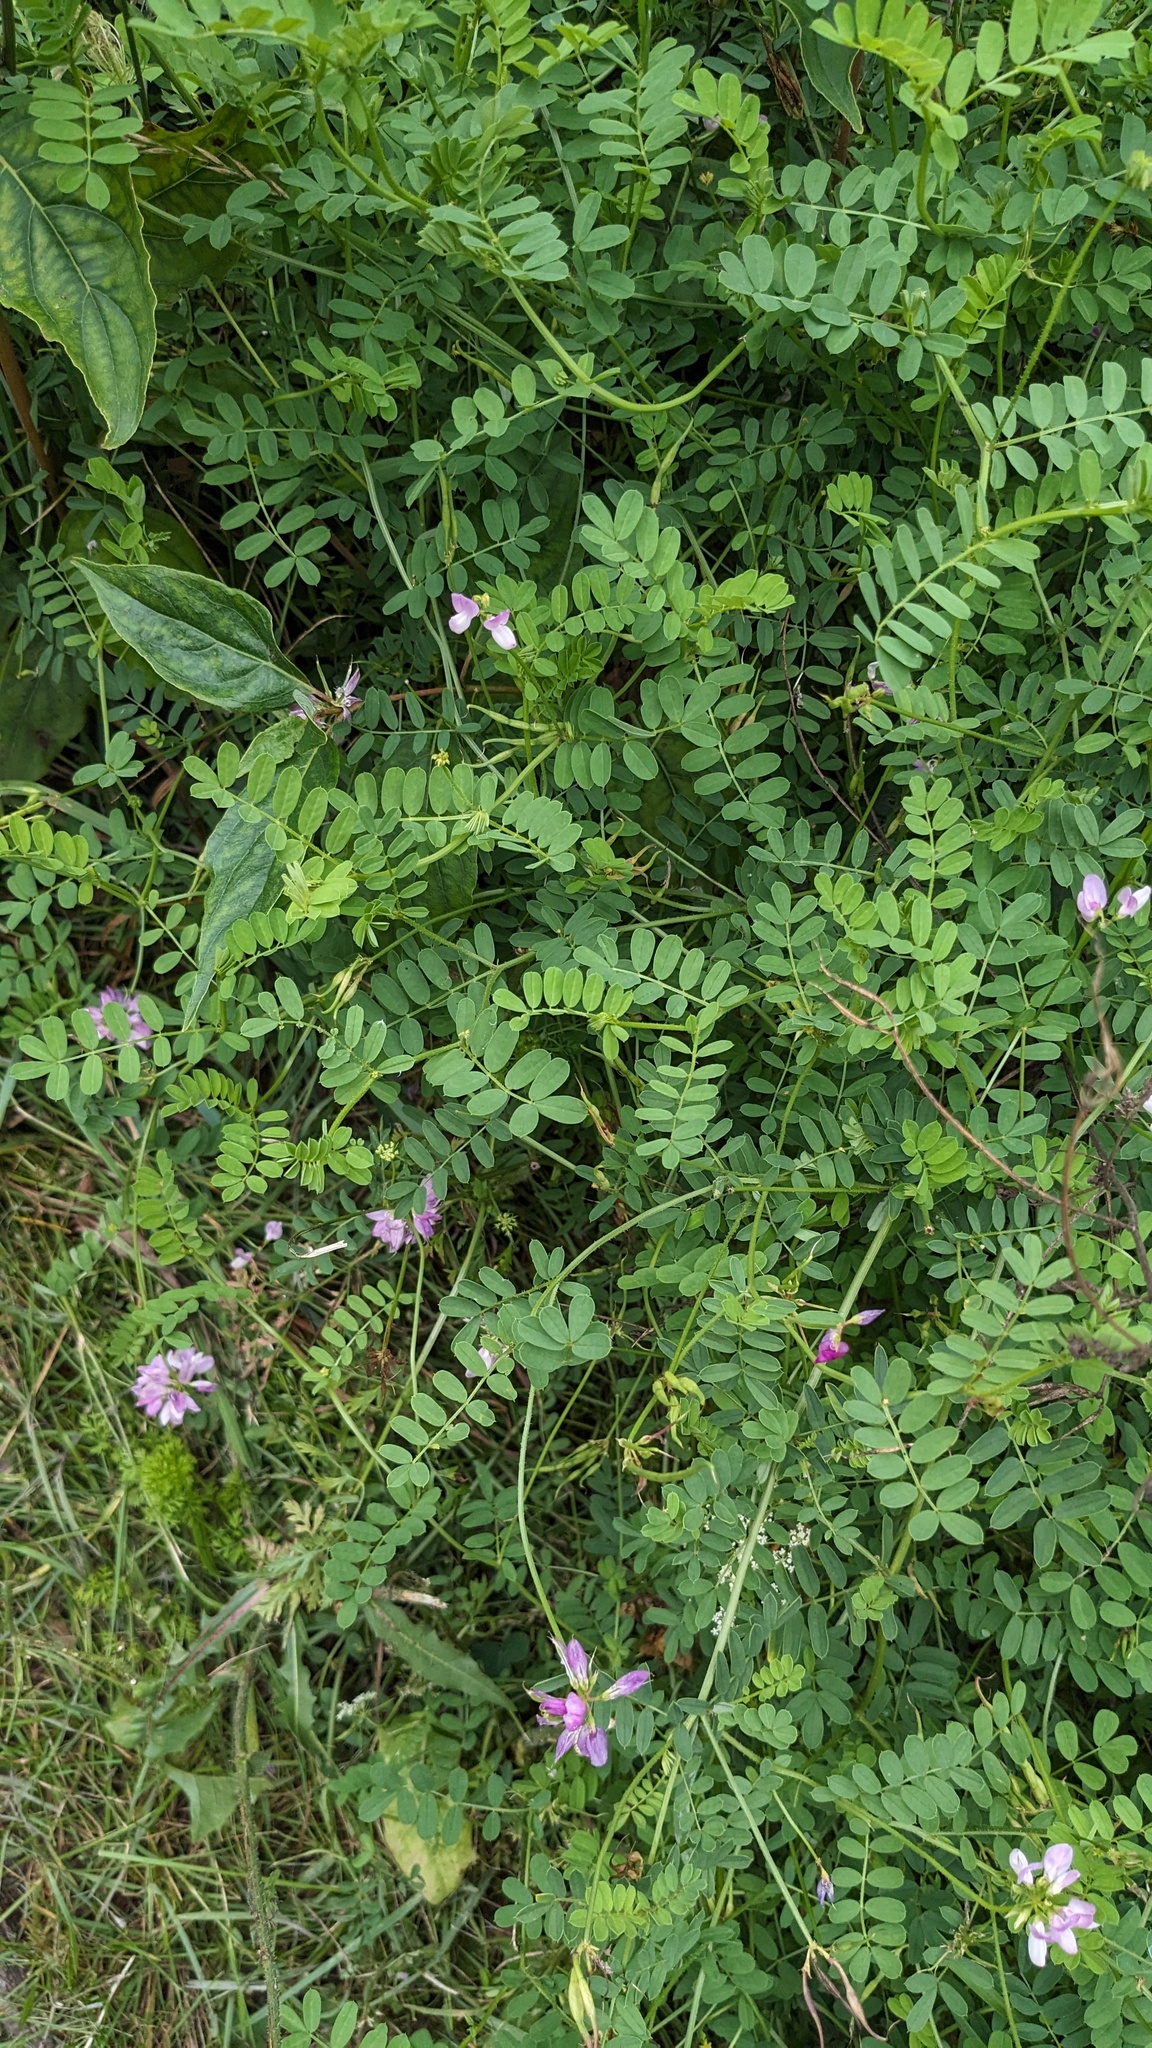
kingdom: Plantae
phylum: Tracheophyta
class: Magnoliopsida
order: Fabales
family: Fabaceae
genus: Coronilla
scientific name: Coronilla varia
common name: Crownvetch
